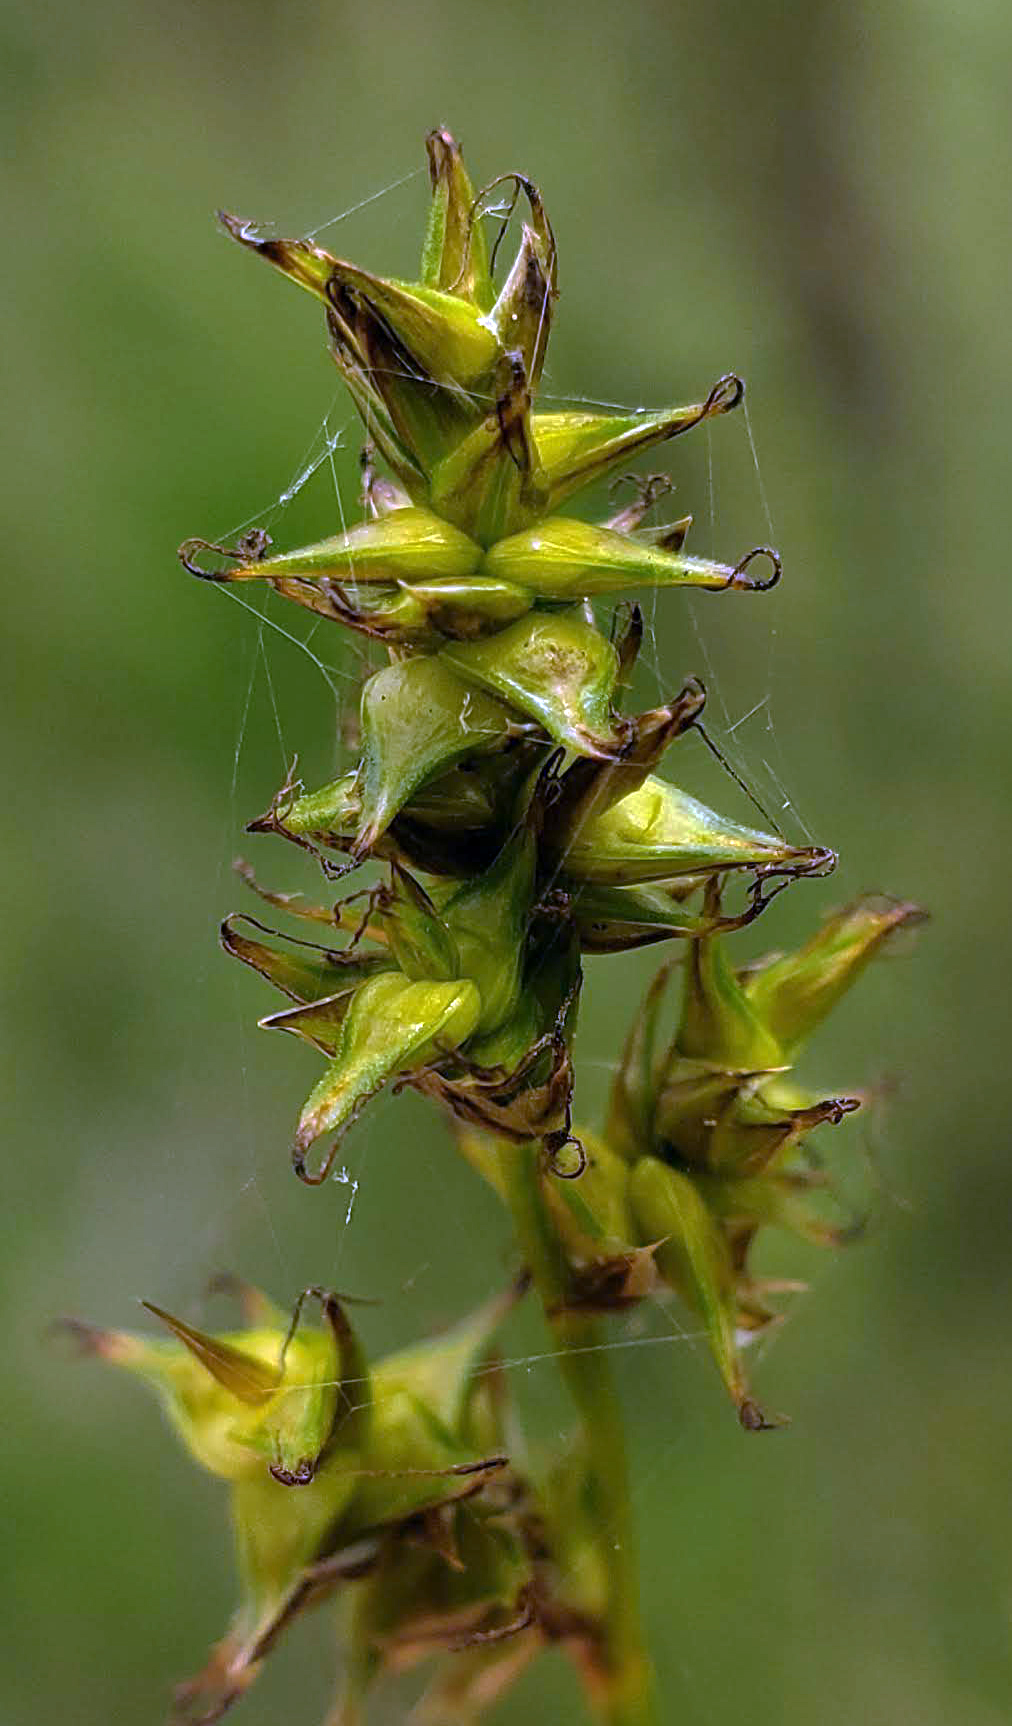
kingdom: Plantae
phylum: Tracheophyta
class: Liliopsida
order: Poales
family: Cyperaceae
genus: Carex
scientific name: Carex sterilis
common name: Dioecious sedge
